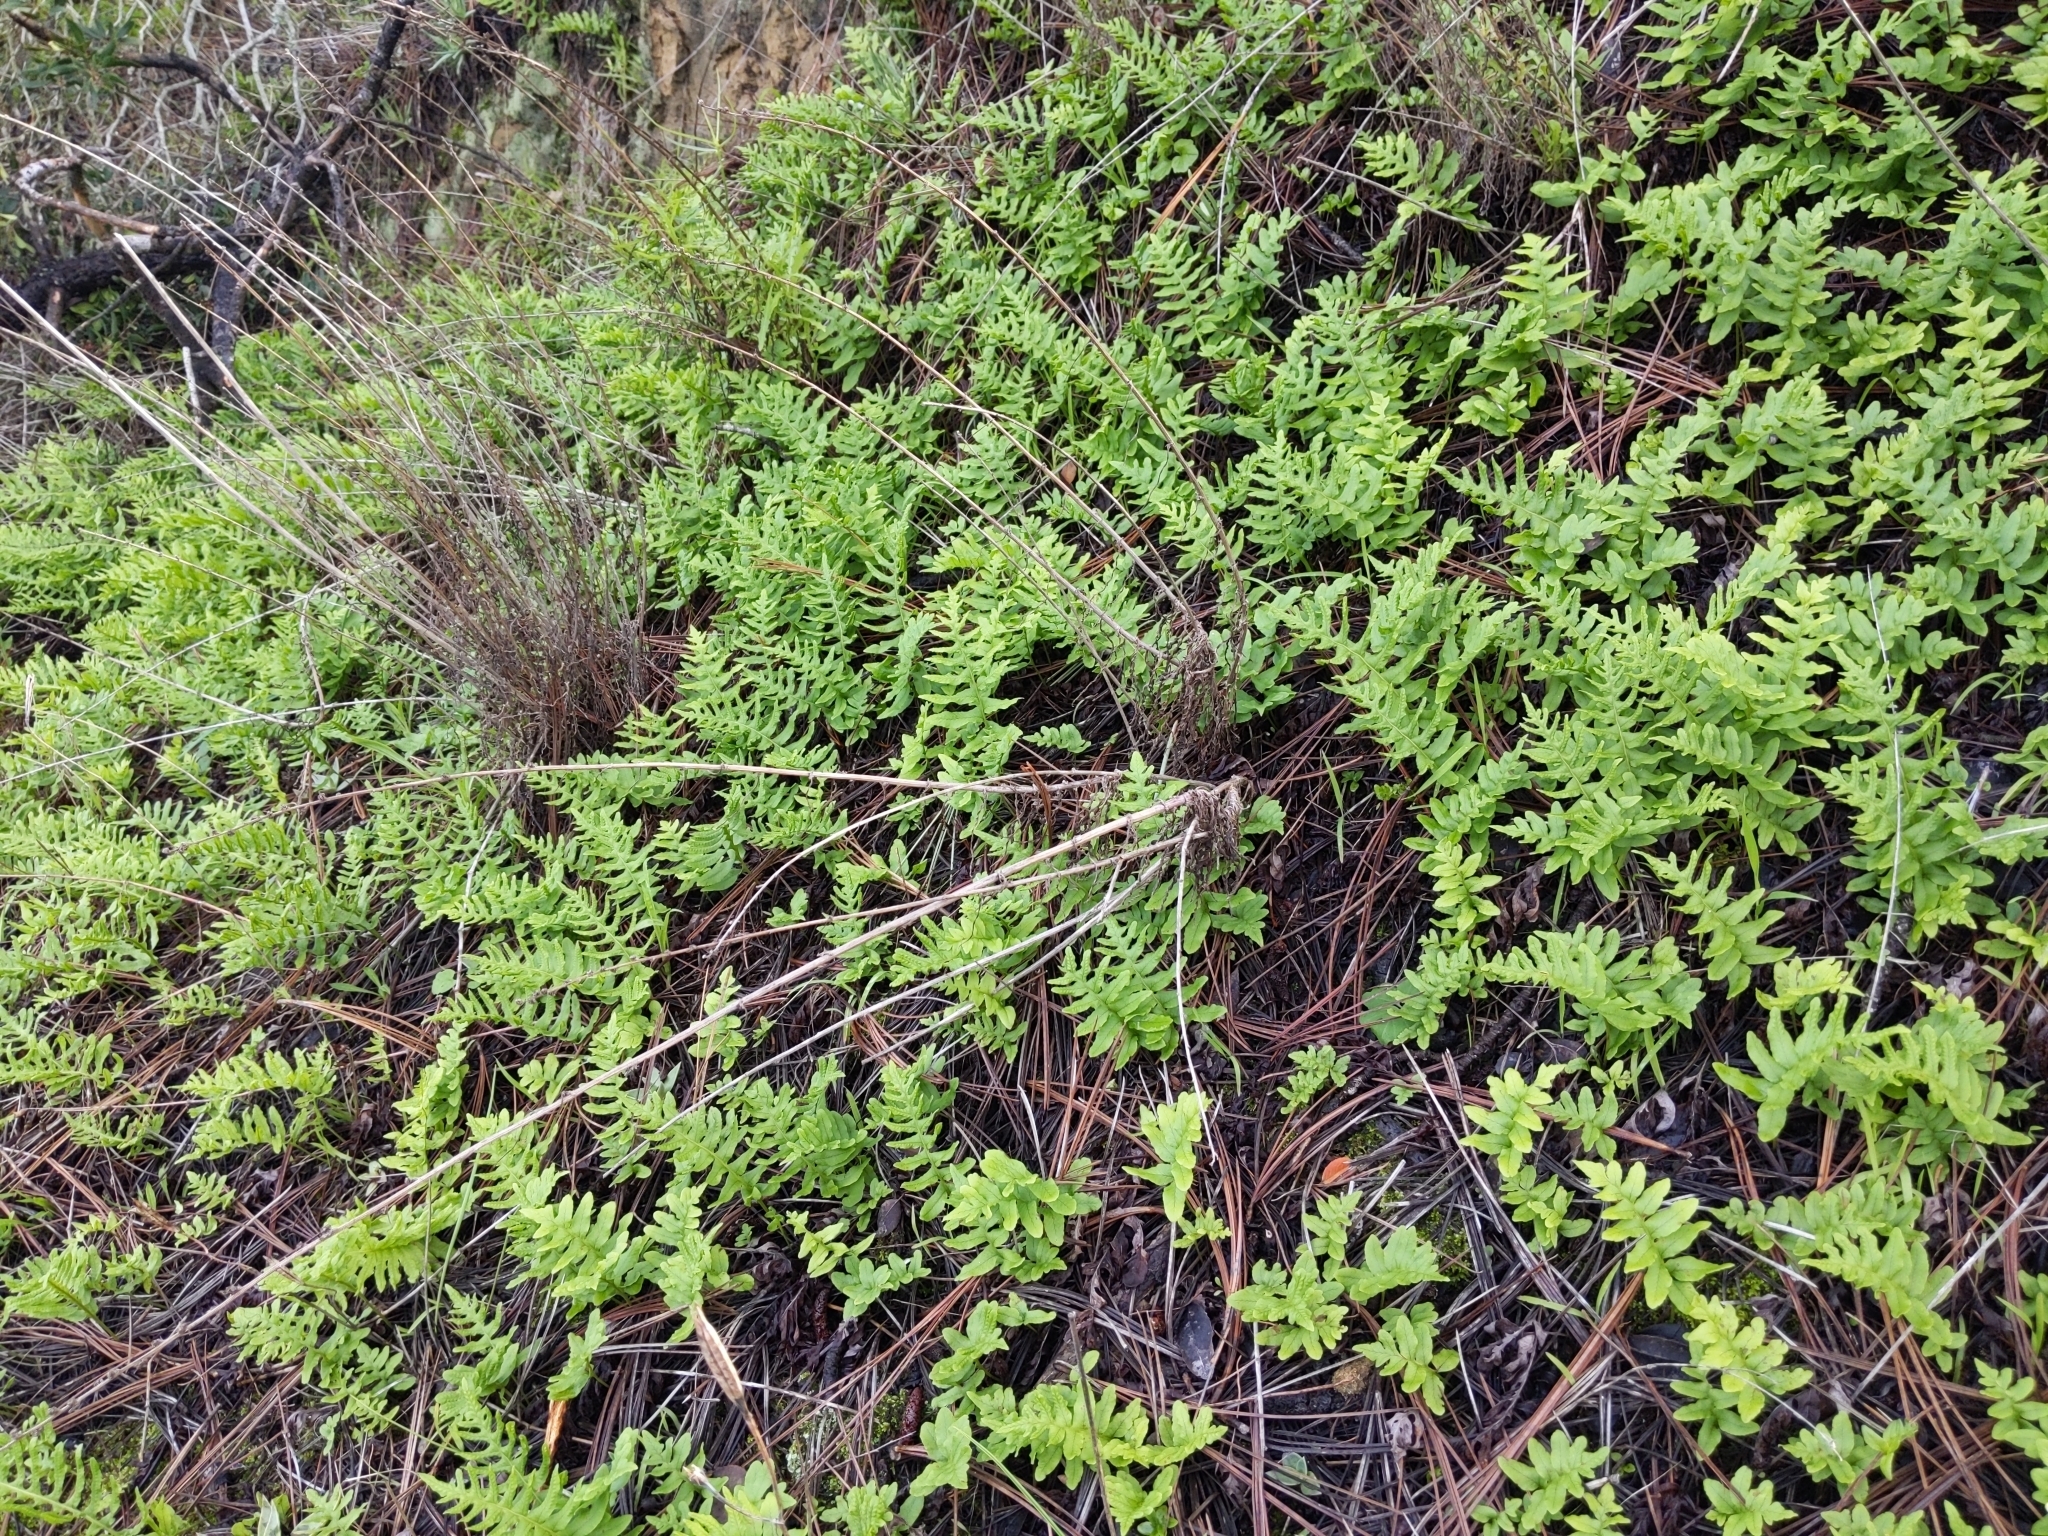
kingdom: Plantae
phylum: Tracheophyta
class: Polypodiopsida
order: Polypodiales
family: Polypodiaceae
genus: Polypodium
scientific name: Polypodium californicum
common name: California polypody
